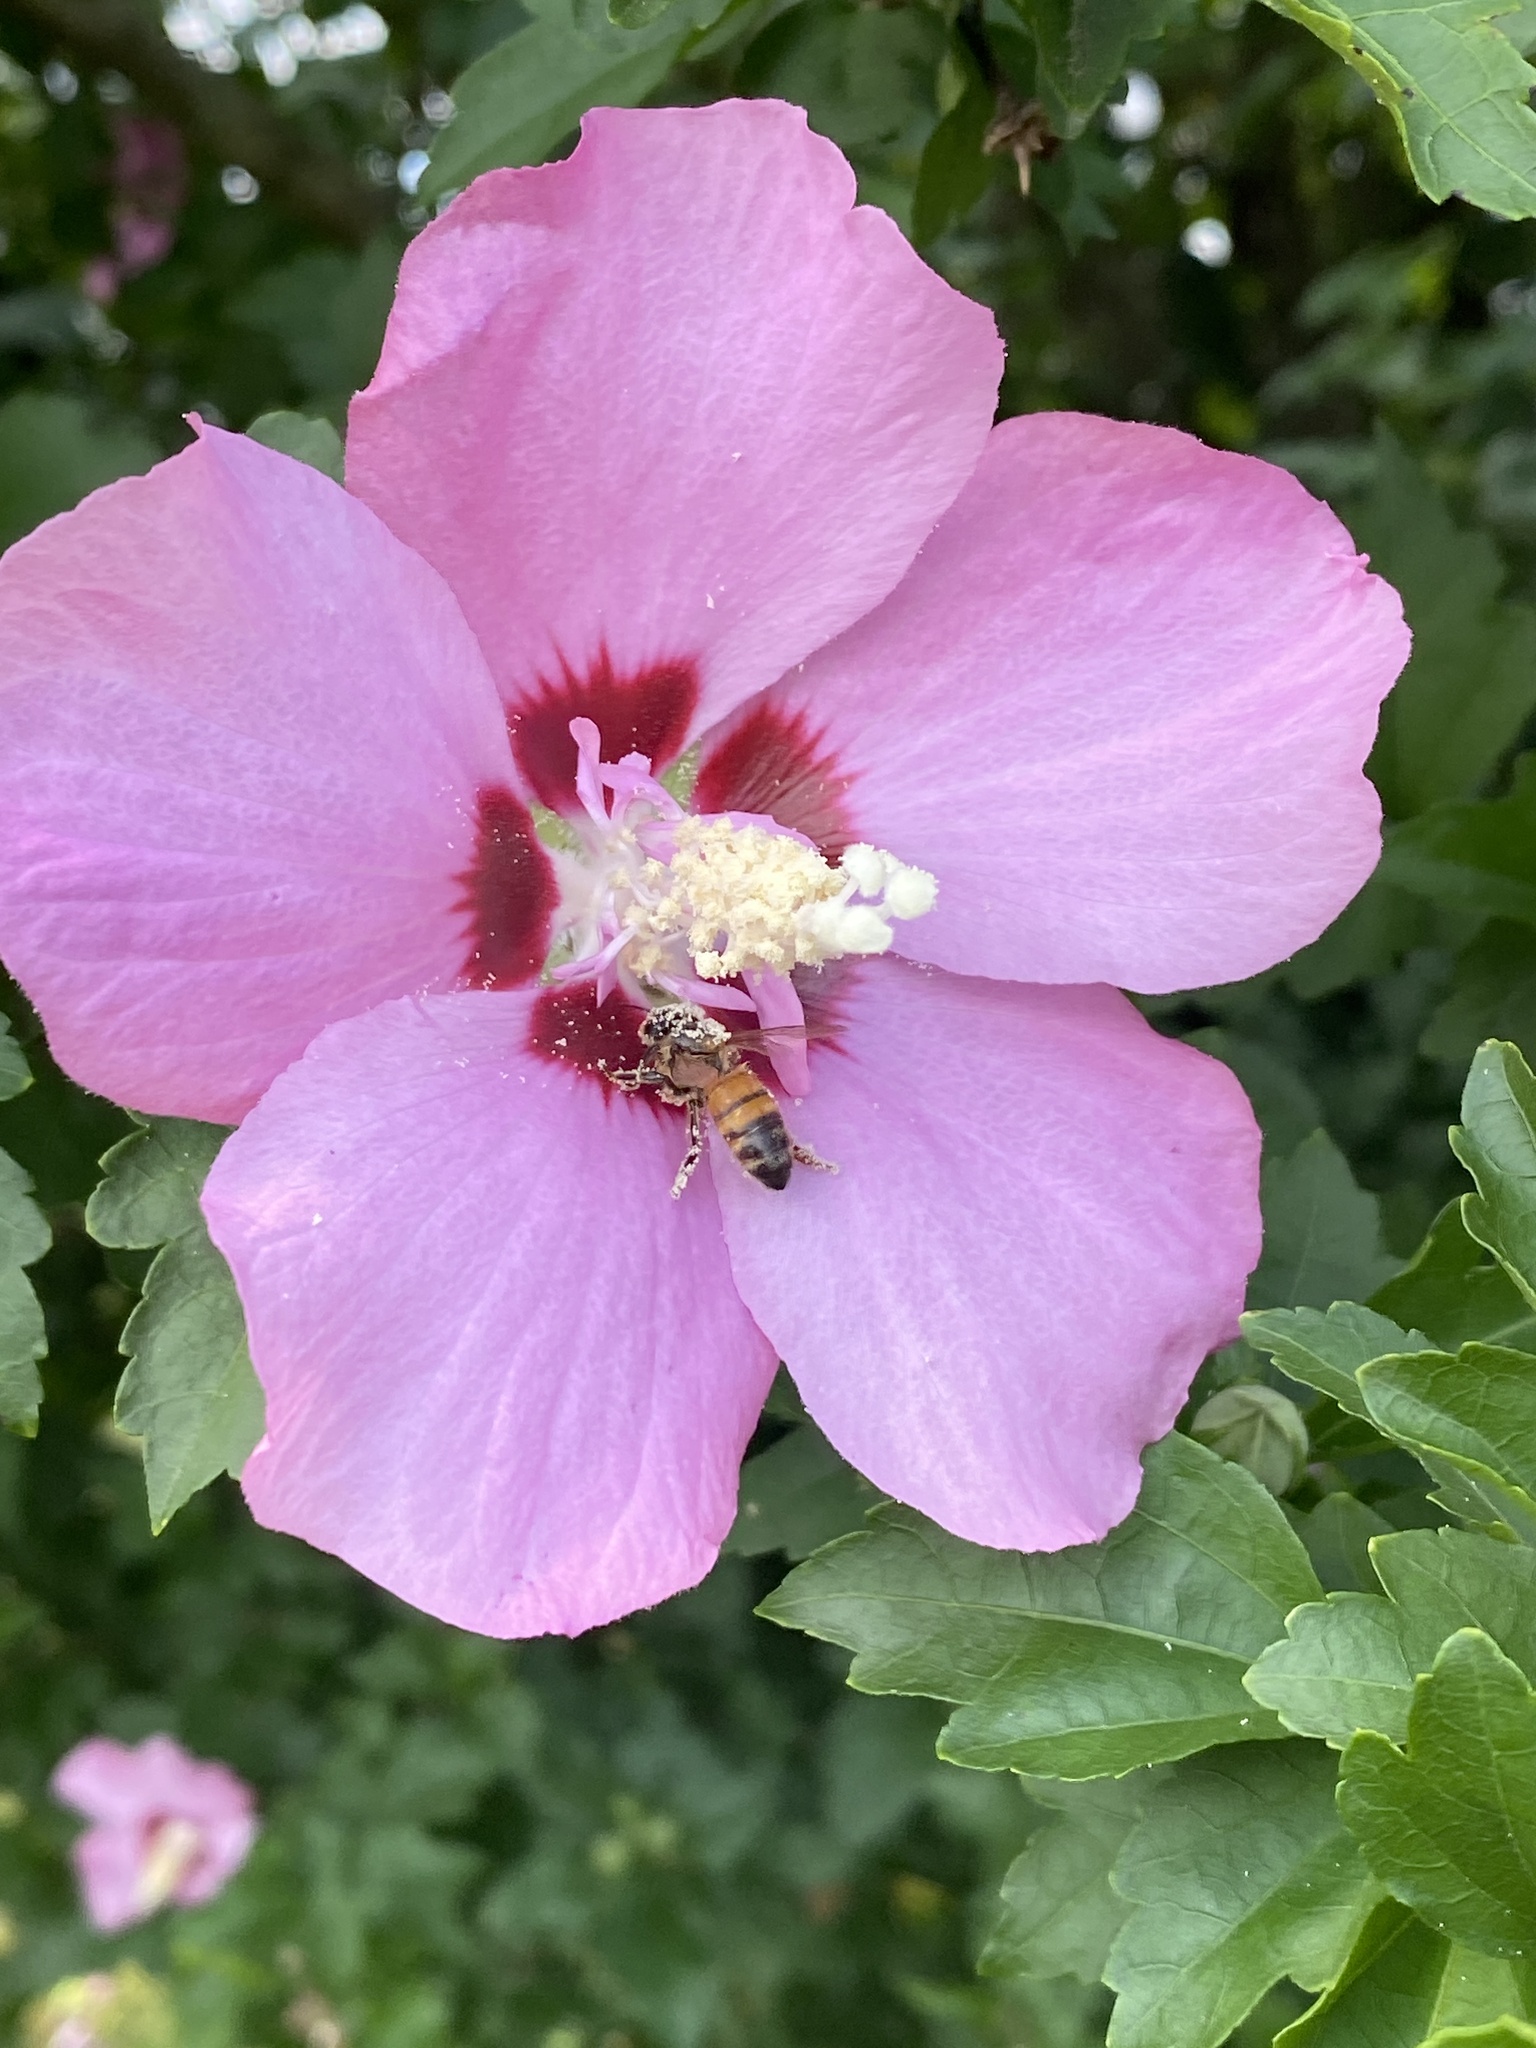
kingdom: Animalia
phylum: Arthropoda
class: Insecta
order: Hymenoptera
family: Apidae
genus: Apis
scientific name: Apis mellifera
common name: Honey bee
